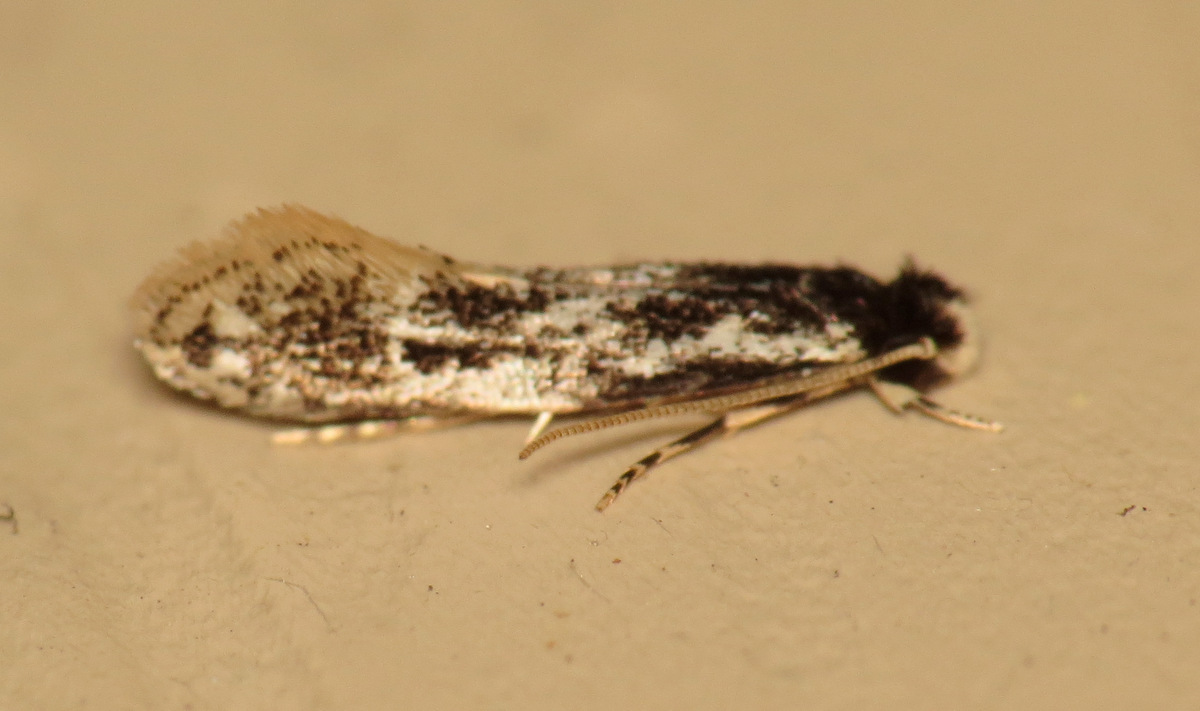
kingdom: Animalia
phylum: Arthropoda
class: Insecta
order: Lepidoptera
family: Meessiidae
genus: Leucomele
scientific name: Leucomele miriamella
